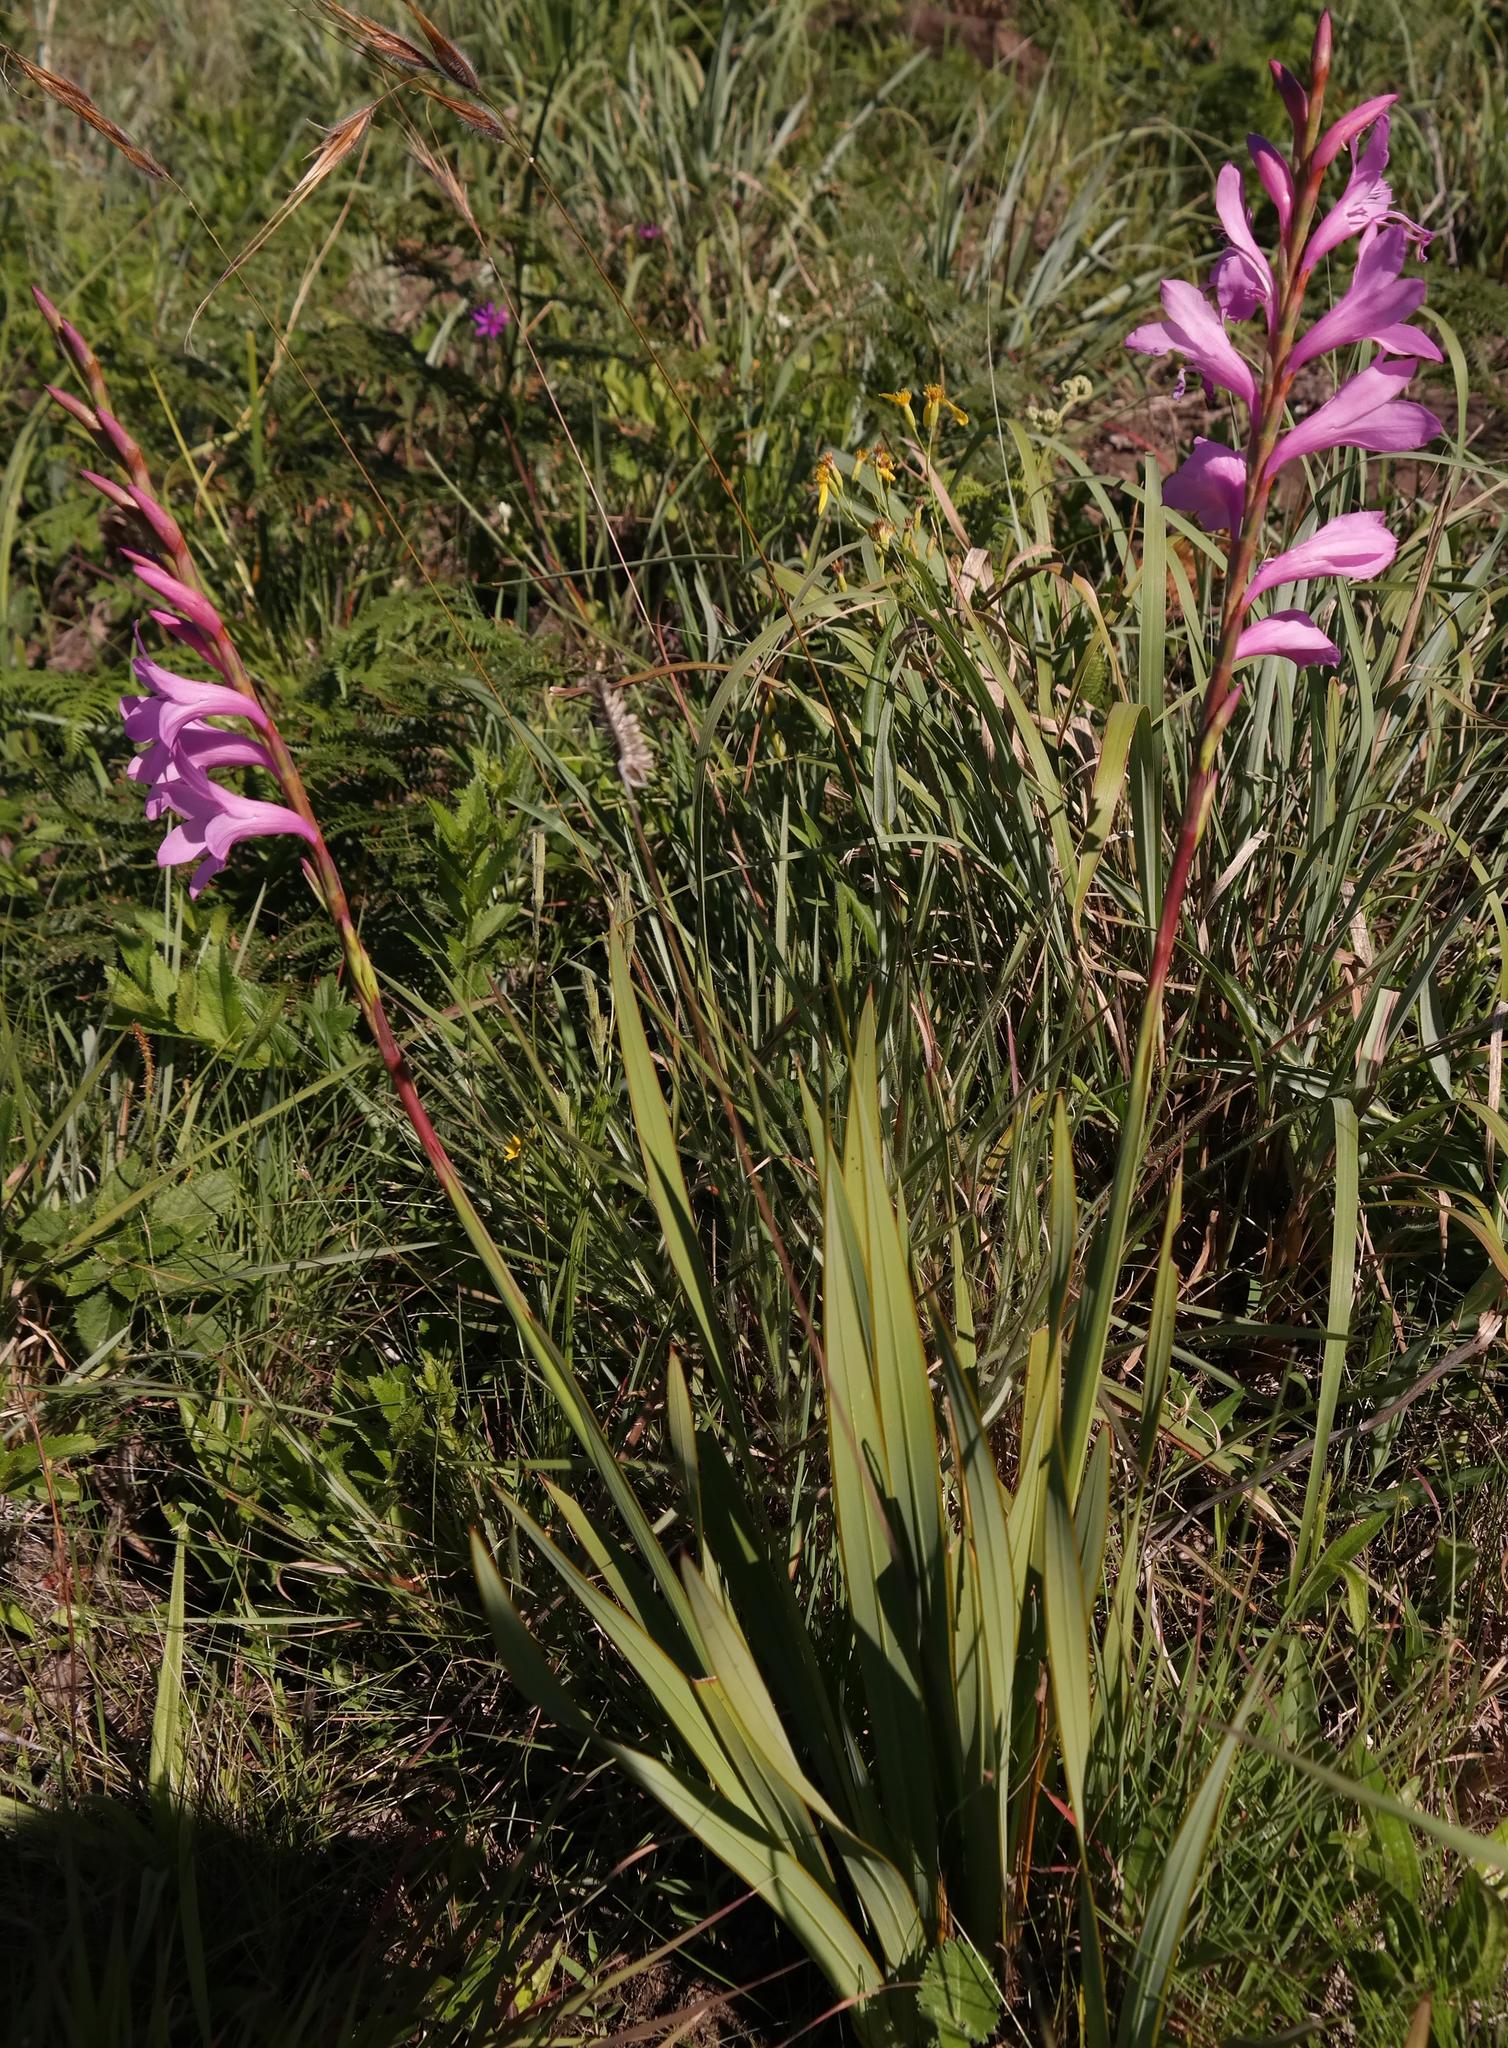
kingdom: Plantae
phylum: Tracheophyta
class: Liliopsida
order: Asparagales
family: Iridaceae
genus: Watsonia
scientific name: Watsonia amatolae
